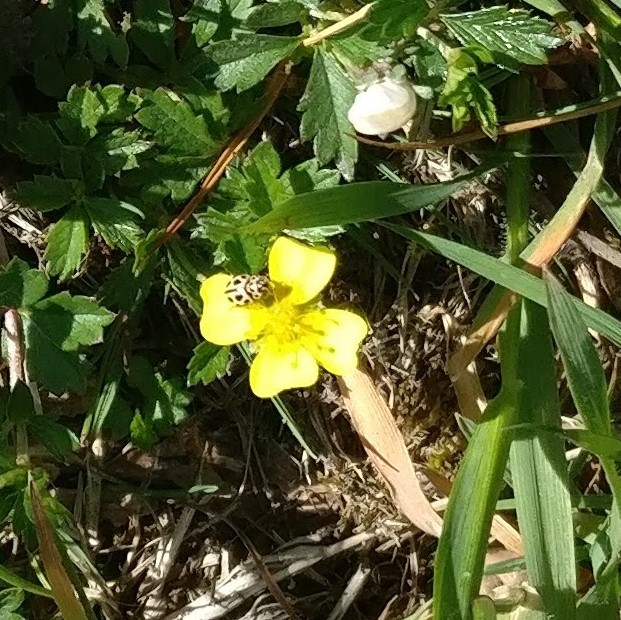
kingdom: Animalia
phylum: Arthropoda
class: Insecta
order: Coleoptera
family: Coccinellidae
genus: Tytthaspis
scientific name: Tytthaspis sedecimpunctata
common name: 16-spot ladybird
